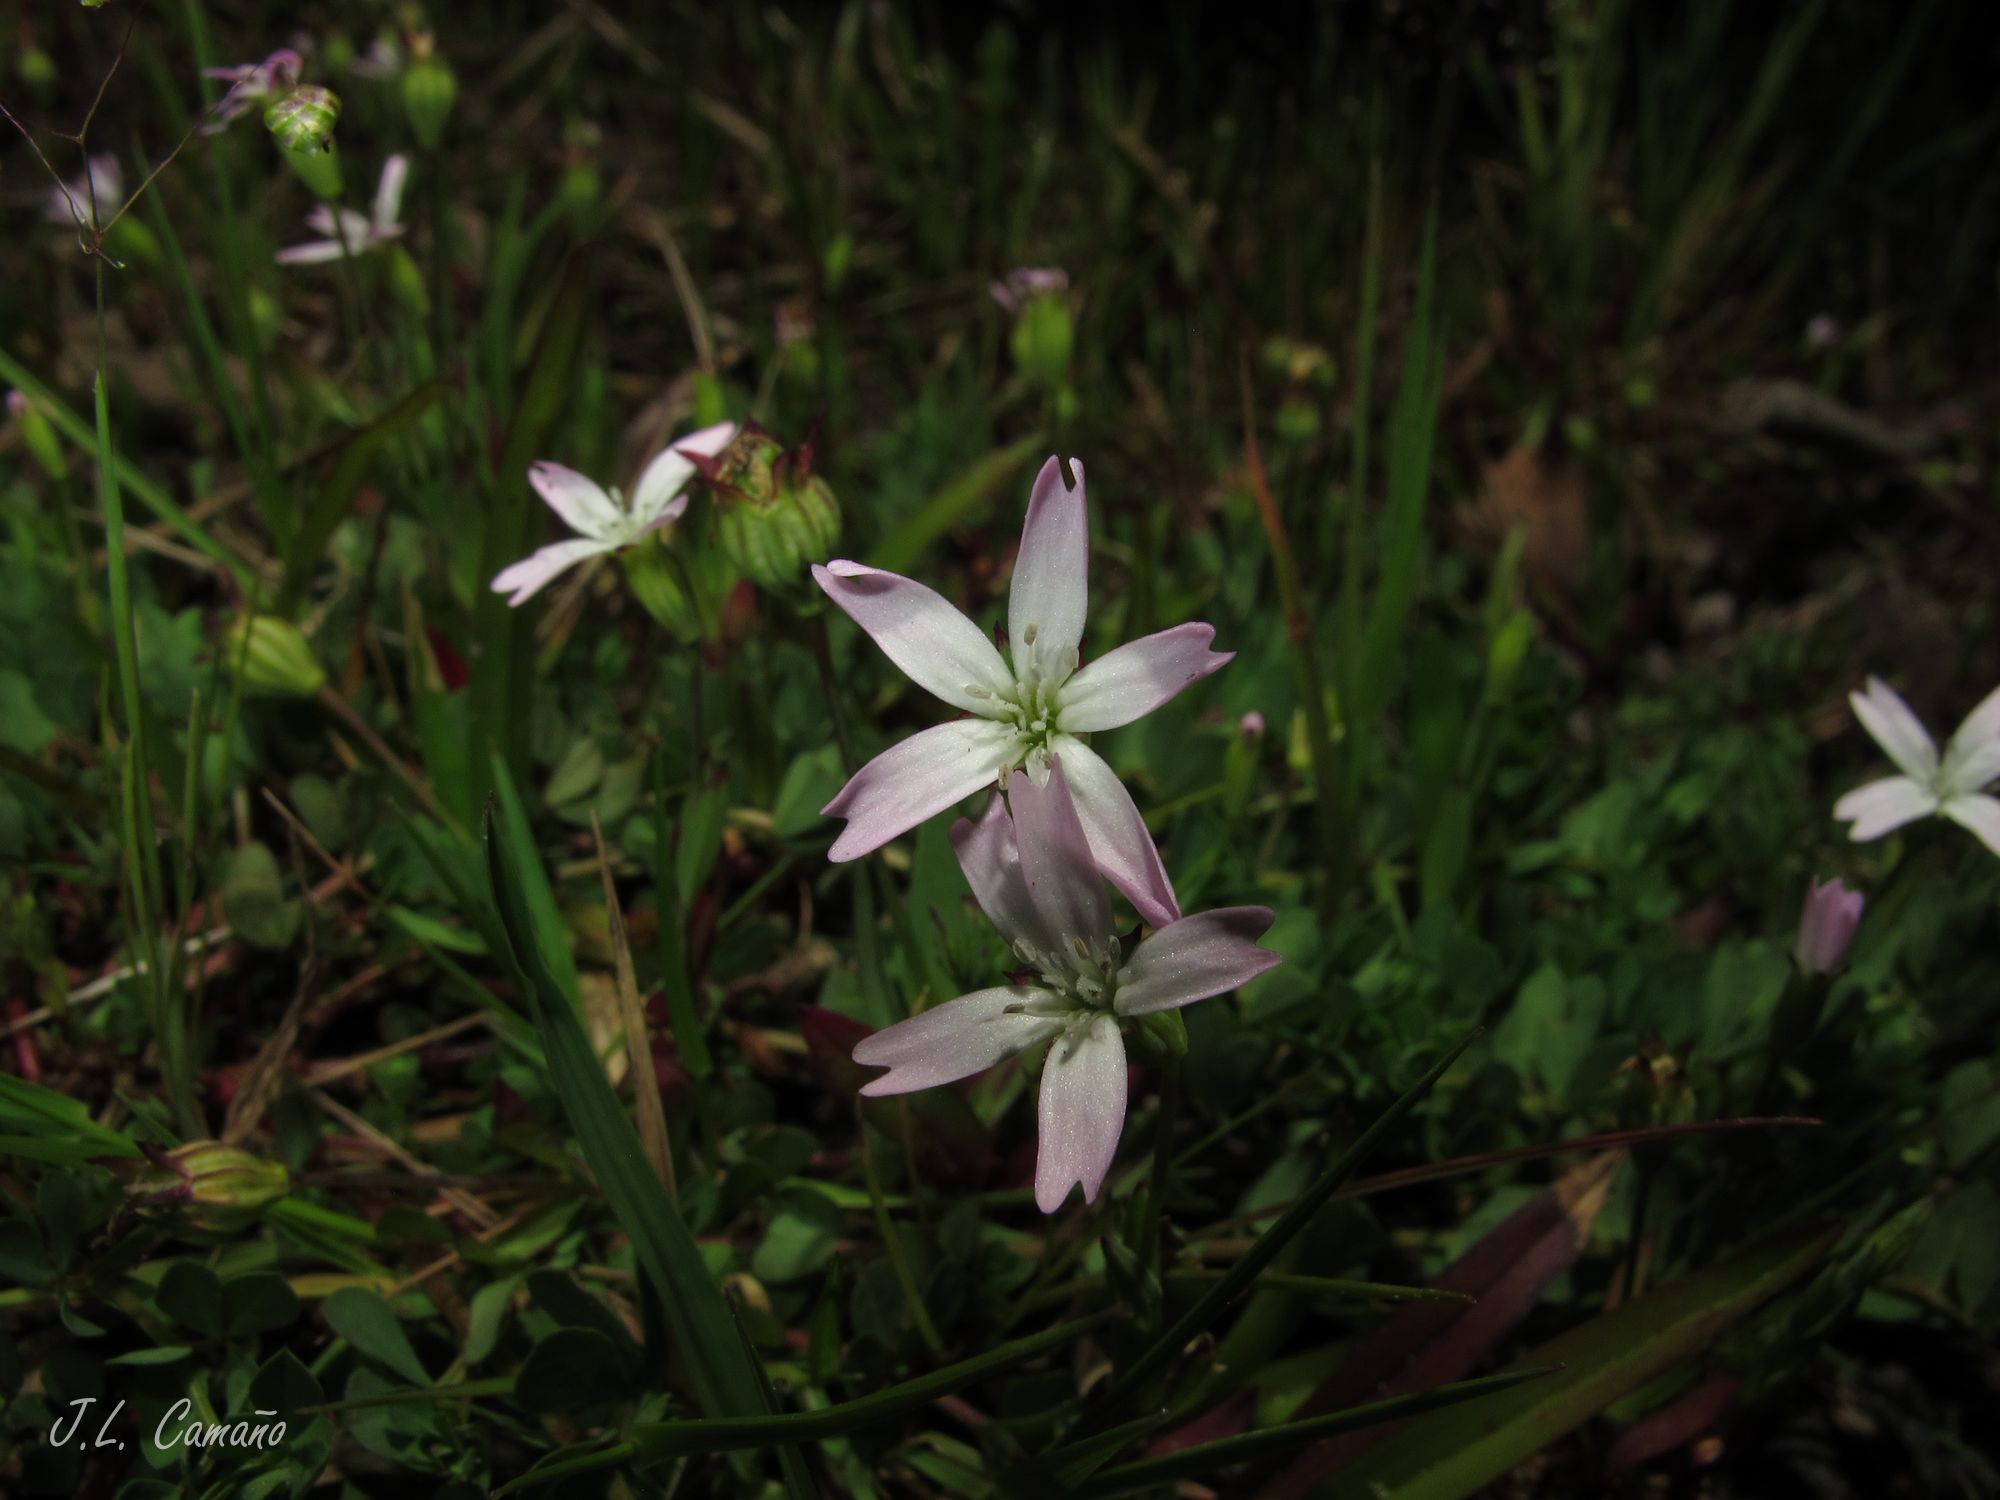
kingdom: Plantae
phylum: Tracheophyta
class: Magnoliopsida
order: Caryophyllales
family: Caryophyllaceae
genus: Eudianthe
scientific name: Eudianthe laeta
